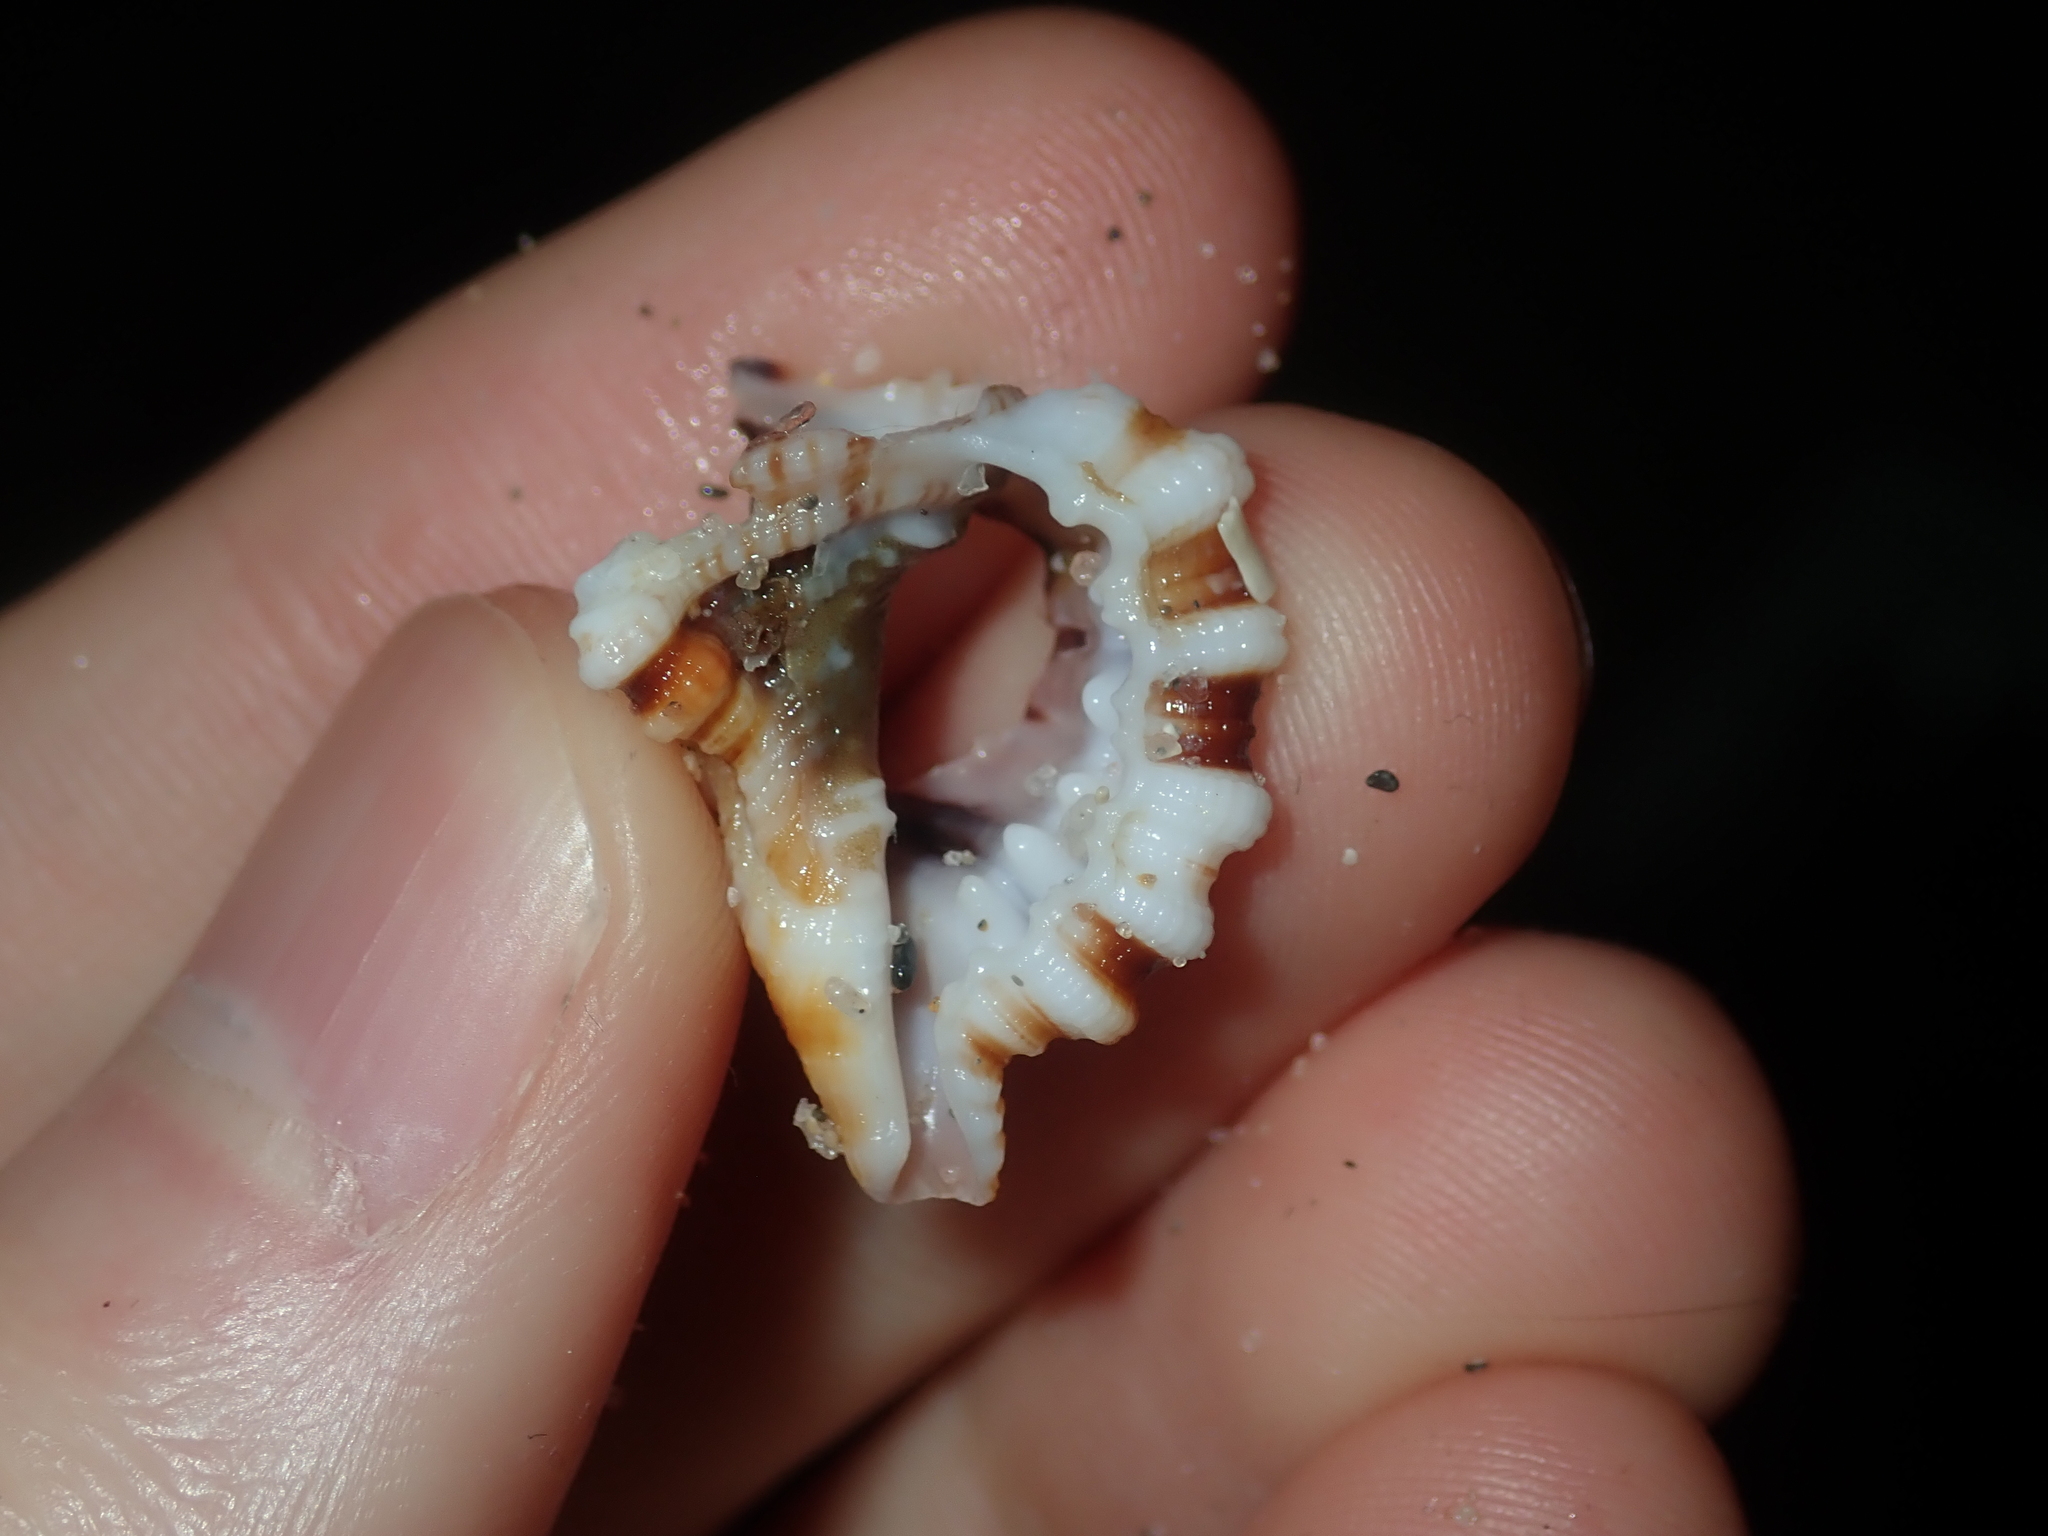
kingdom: Animalia
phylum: Mollusca
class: Gastropoda
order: Littorinimorpha
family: Cymatiidae
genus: Monoplex
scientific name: Monoplex exaratus
